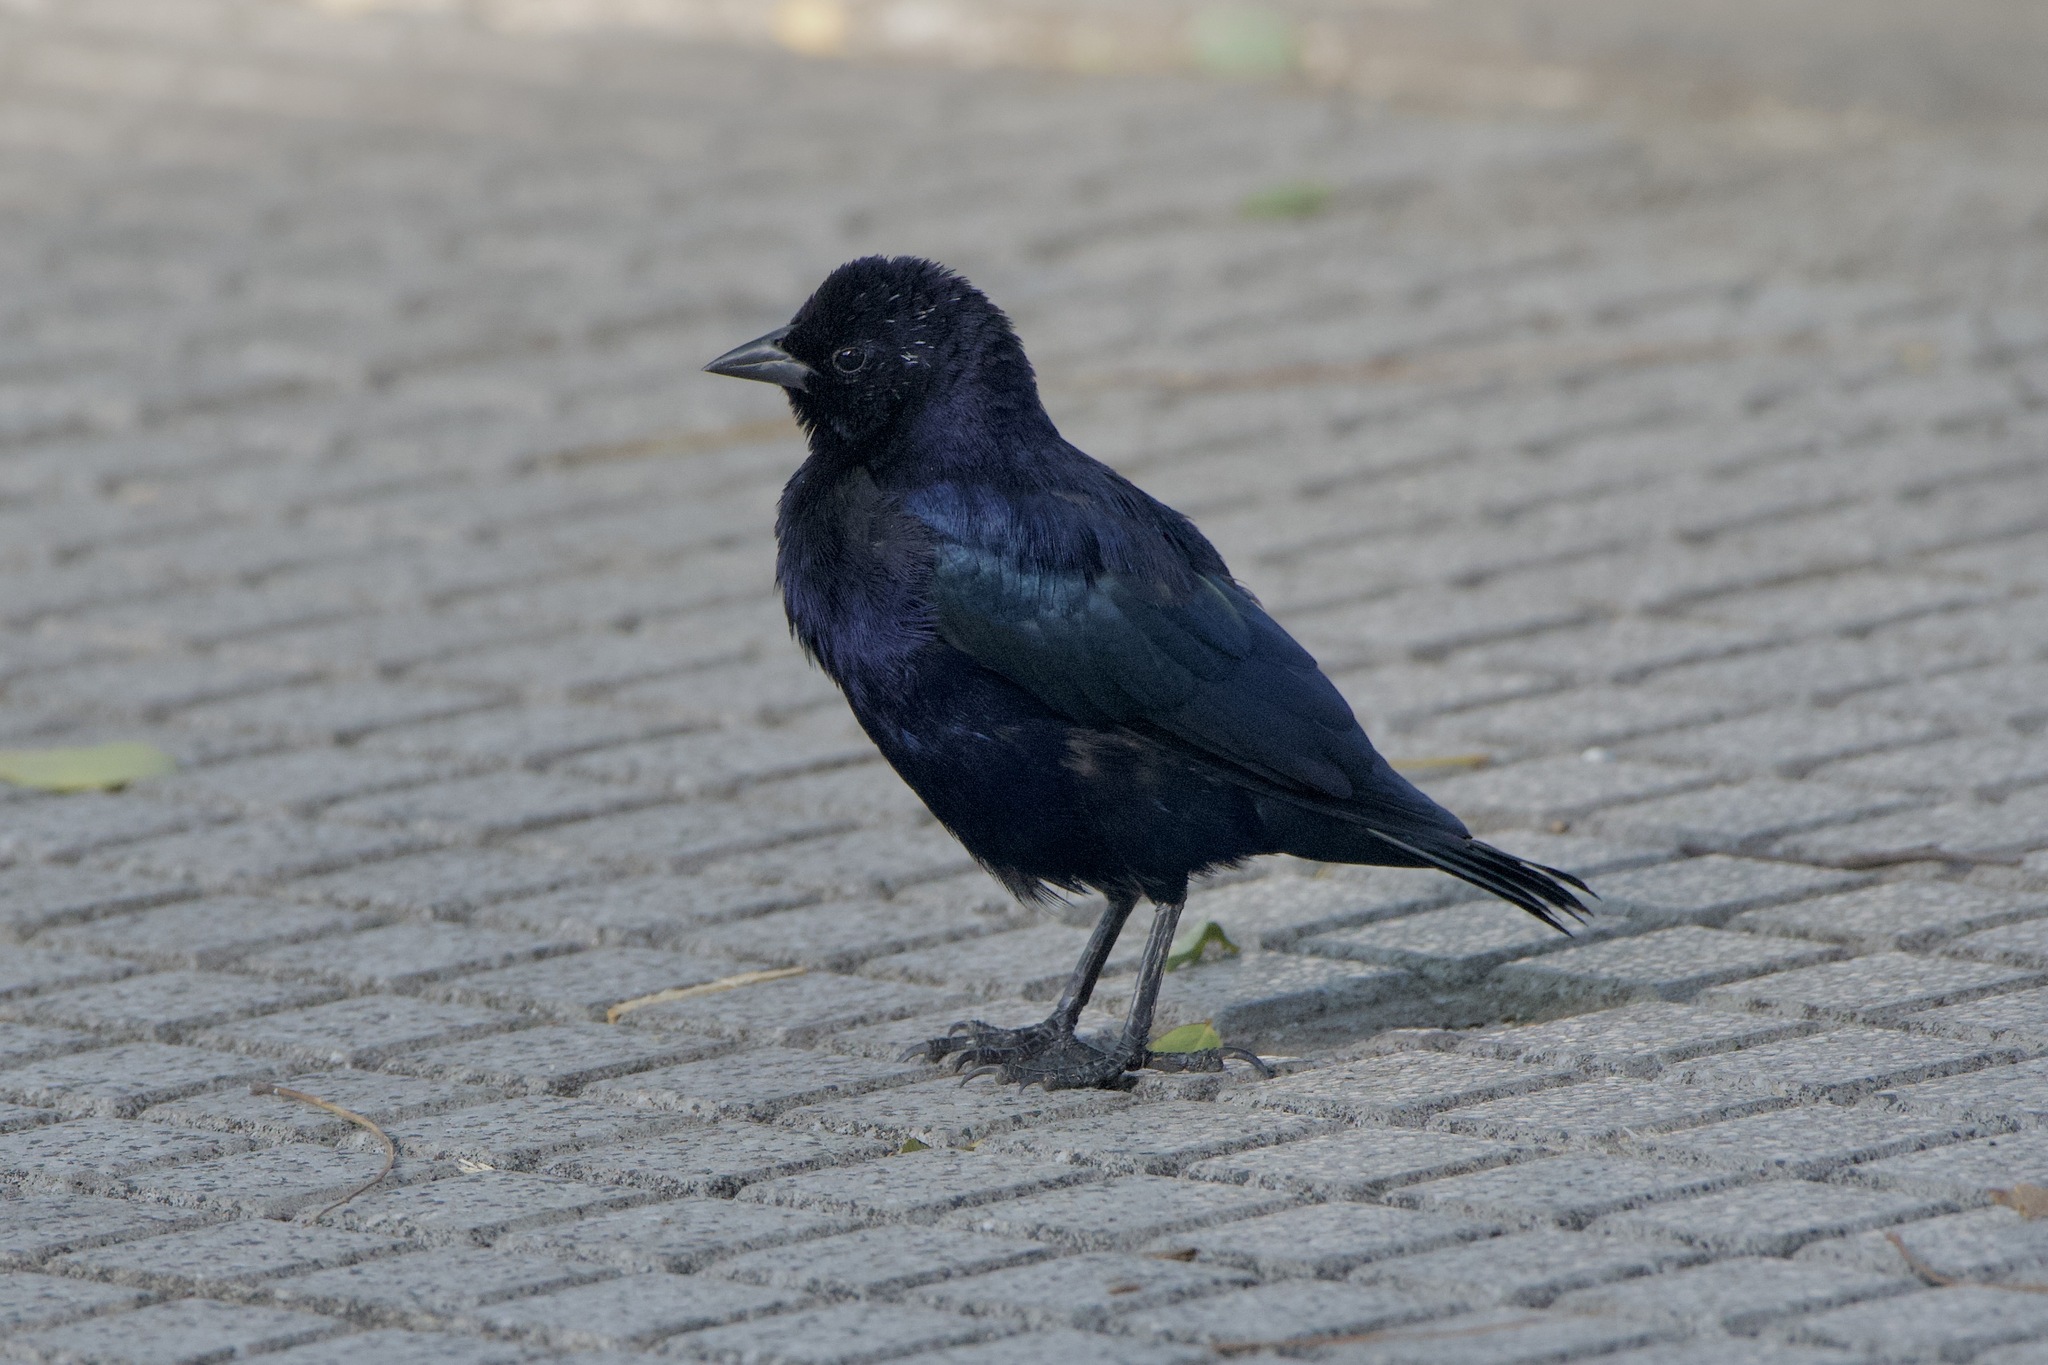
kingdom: Animalia
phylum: Chordata
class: Aves
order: Passeriformes
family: Icteridae
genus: Molothrus
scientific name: Molothrus bonariensis
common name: Shiny cowbird
